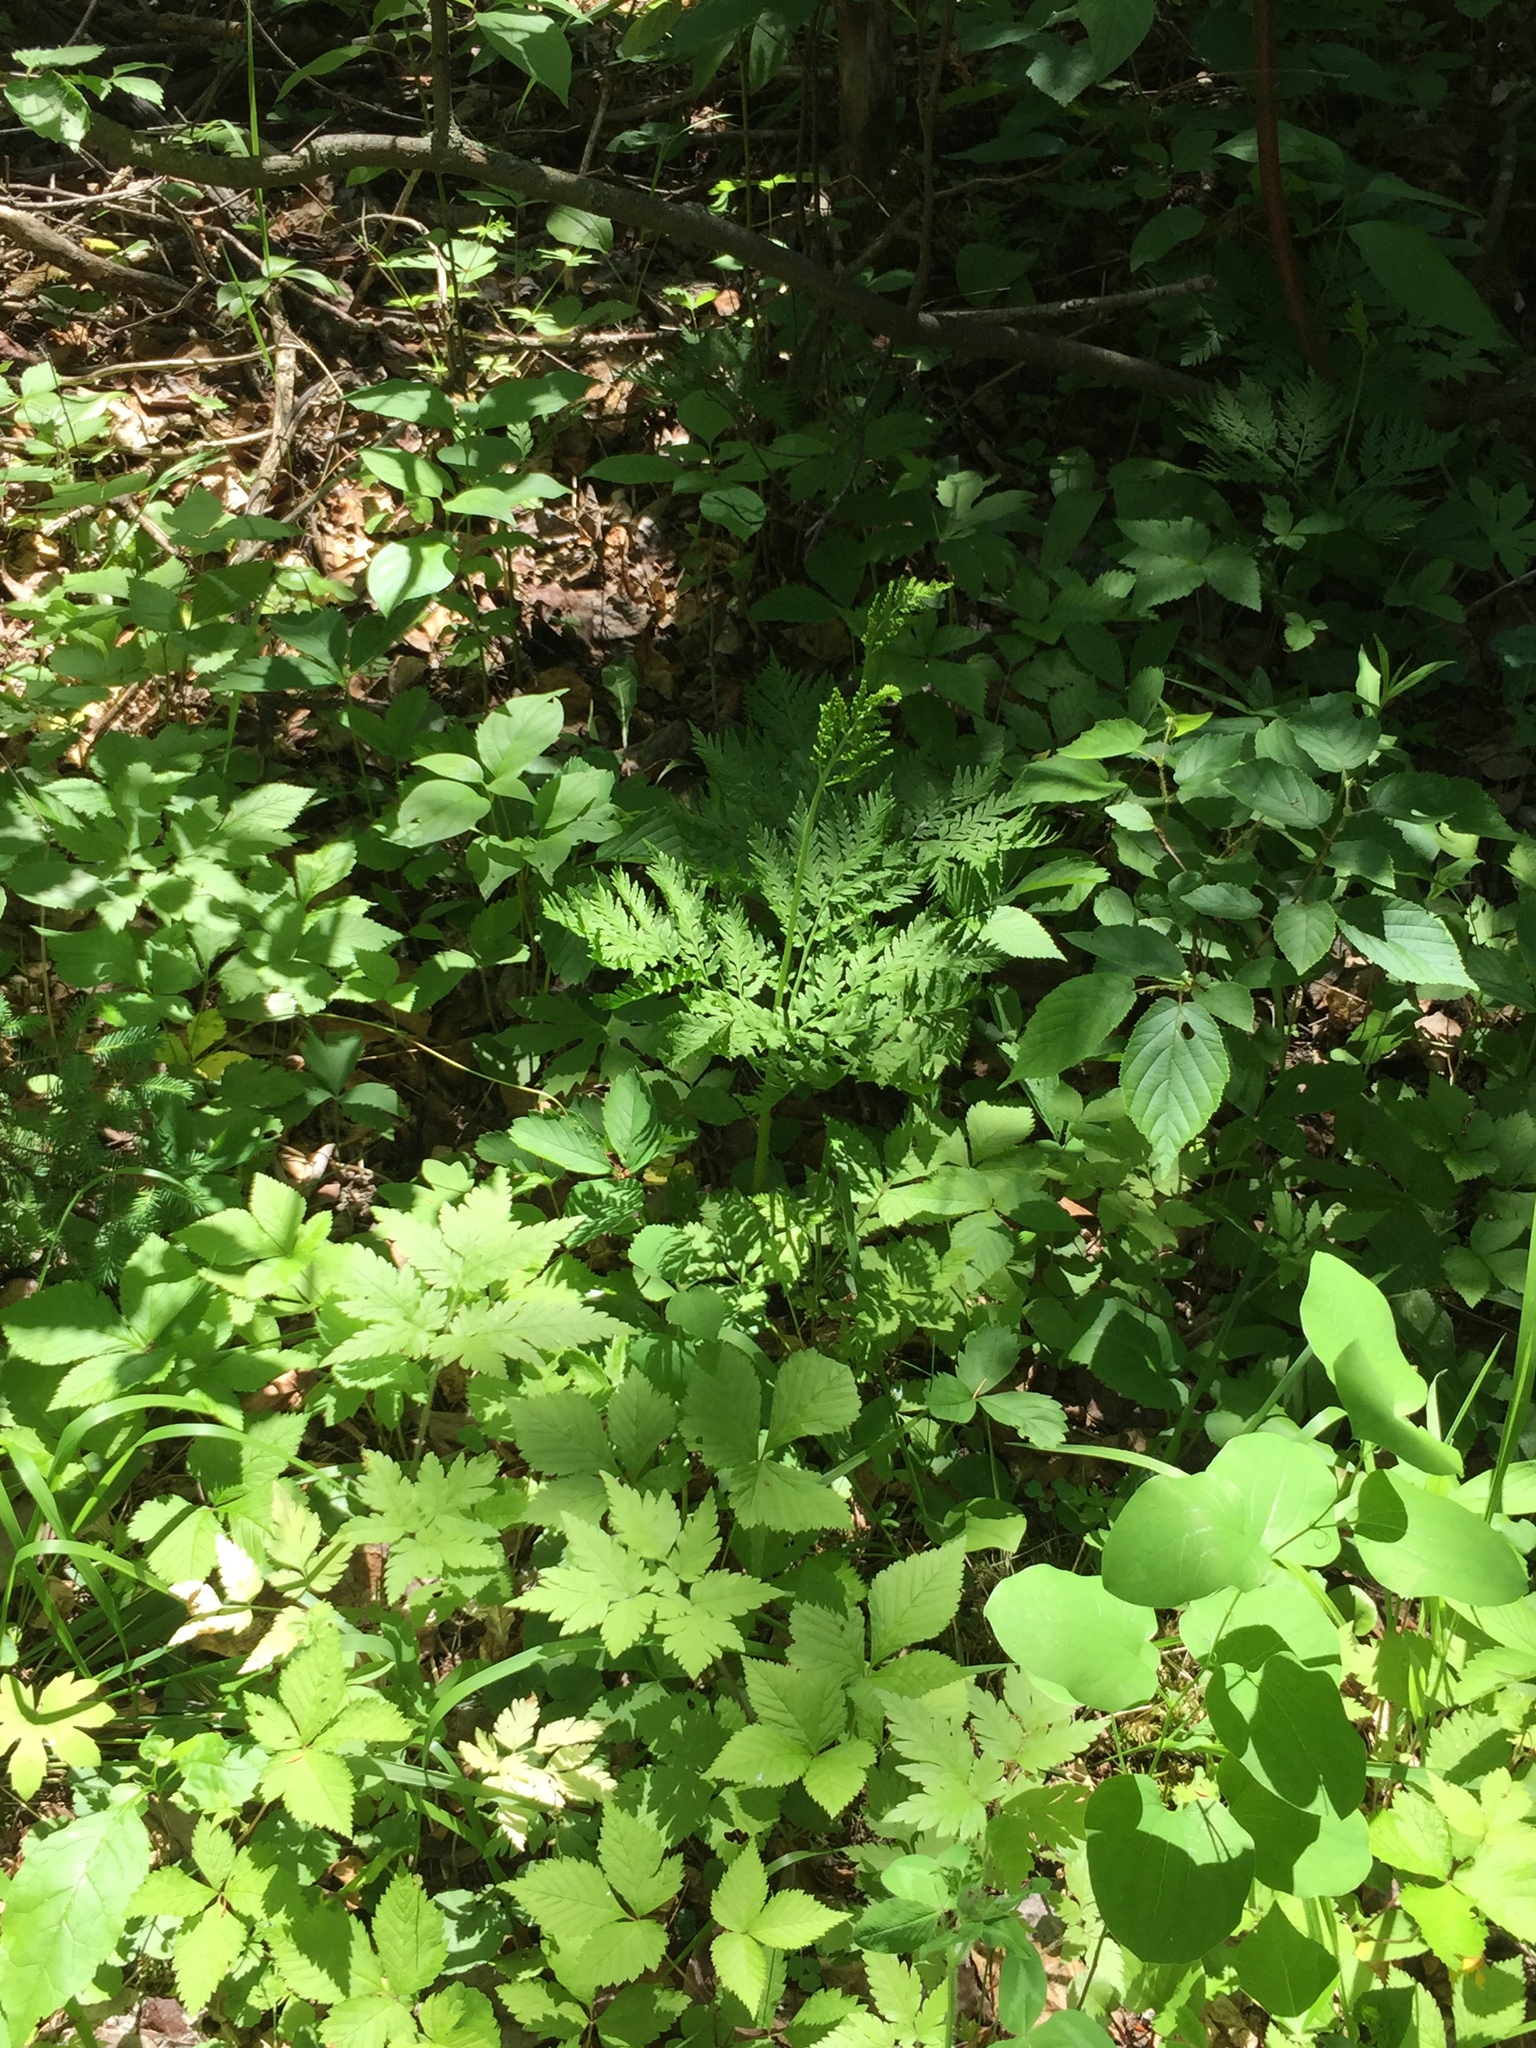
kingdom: Plantae
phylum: Tracheophyta
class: Polypodiopsida
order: Ophioglossales
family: Ophioglossaceae
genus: Botrypus
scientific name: Botrypus virginianus
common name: Common grapefern
